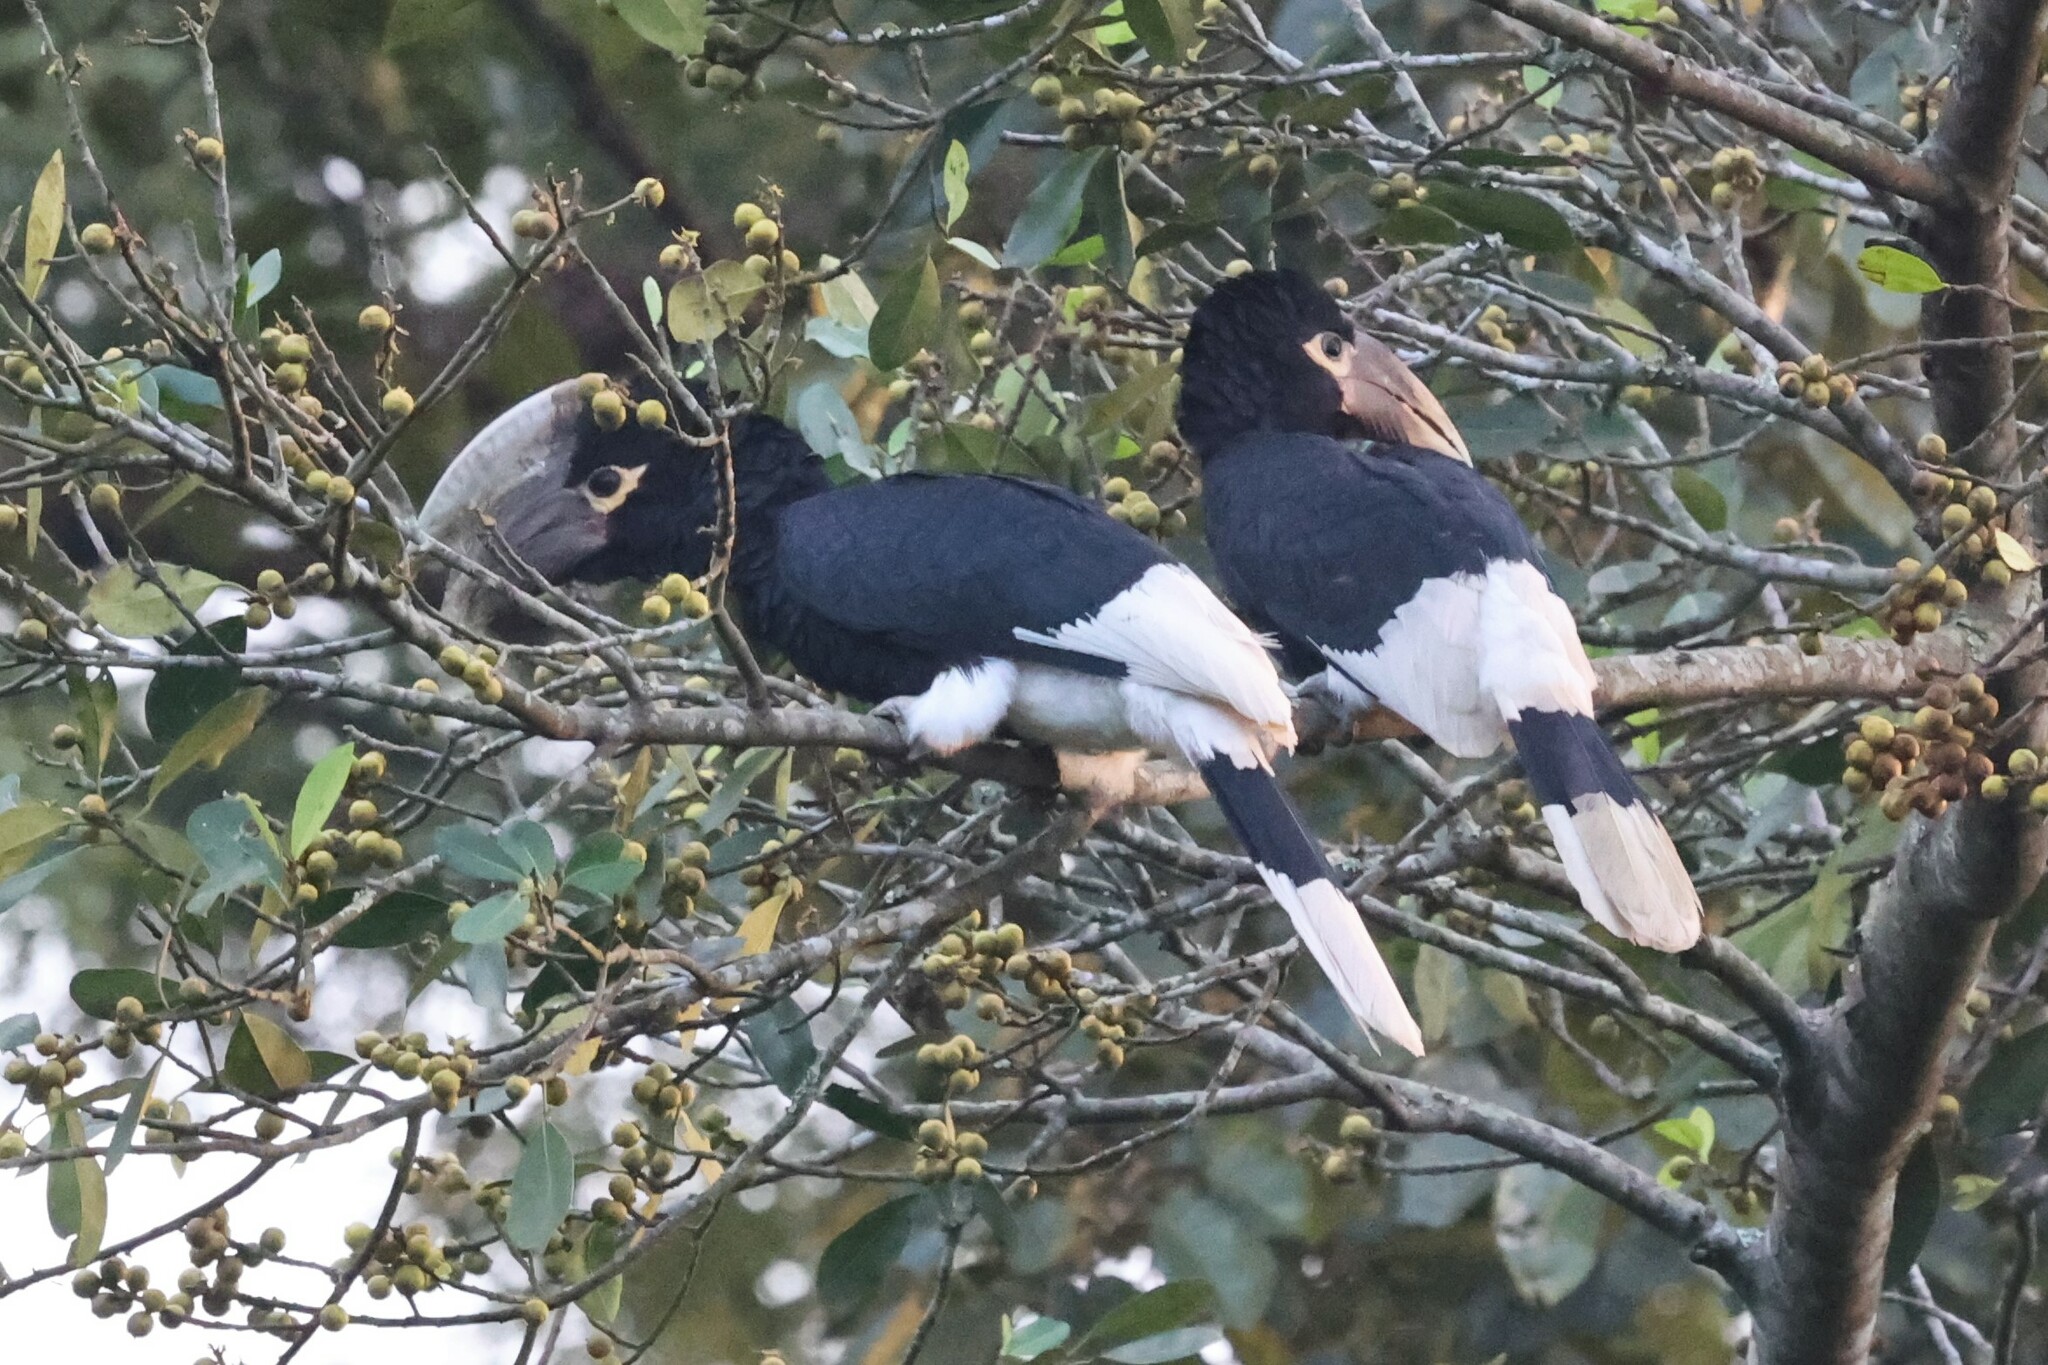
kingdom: Animalia
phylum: Chordata
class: Aves
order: Bucerotiformes
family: Bucerotidae
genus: Bycanistes
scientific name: Bycanistes albotibialis
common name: White-thighed hornbill
